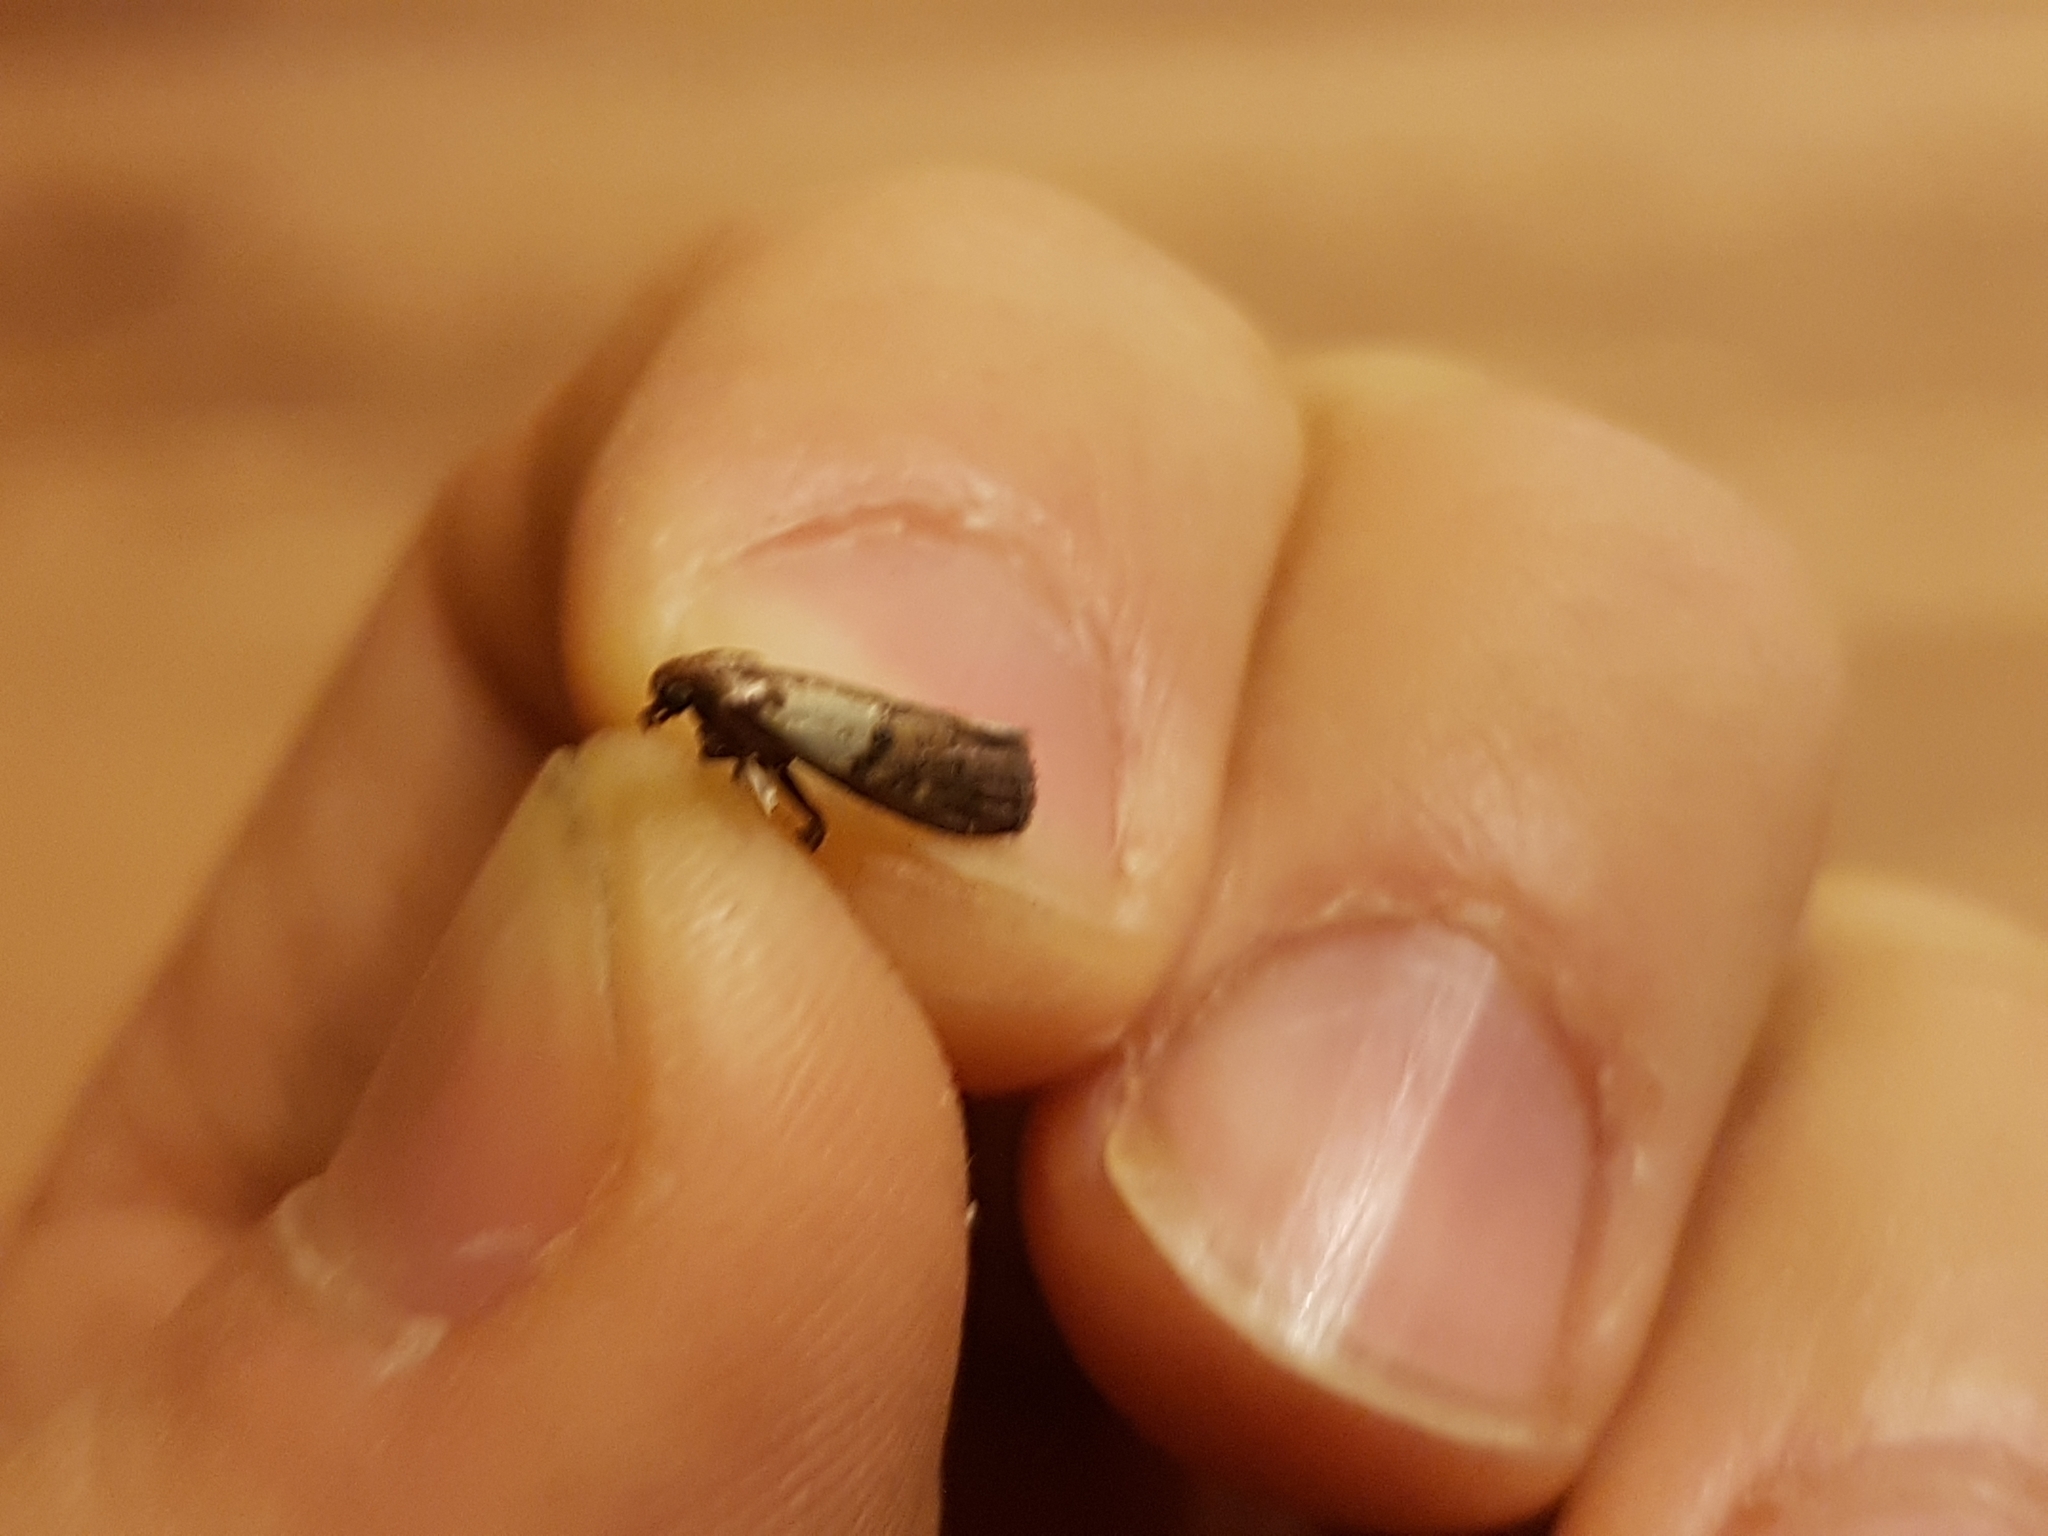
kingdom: Animalia
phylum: Arthropoda
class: Insecta
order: Lepidoptera
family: Pyralidae
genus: Plodia
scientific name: Plodia interpunctella
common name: Indian meal moth
